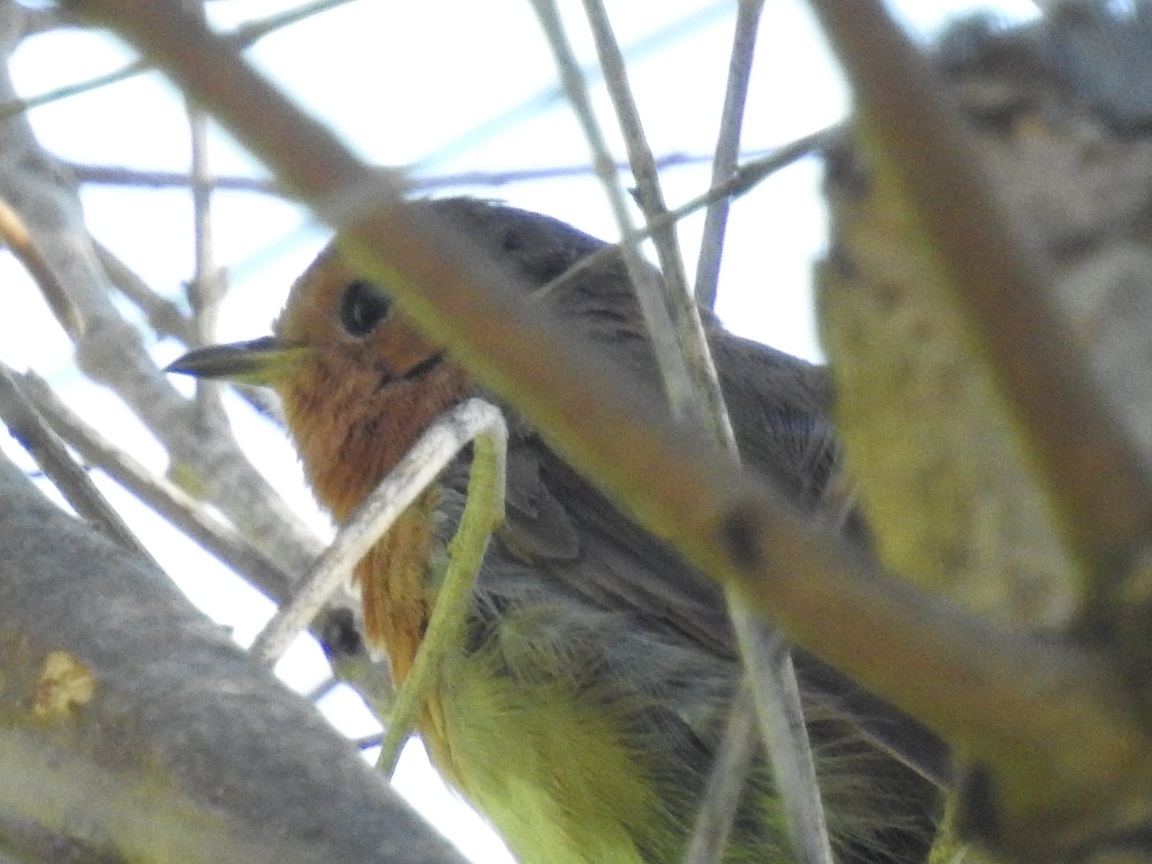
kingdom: Animalia
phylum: Chordata
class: Aves
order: Passeriformes
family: Muscicapidae
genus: Erithacus
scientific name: Erithacus rubecula
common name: European robin
